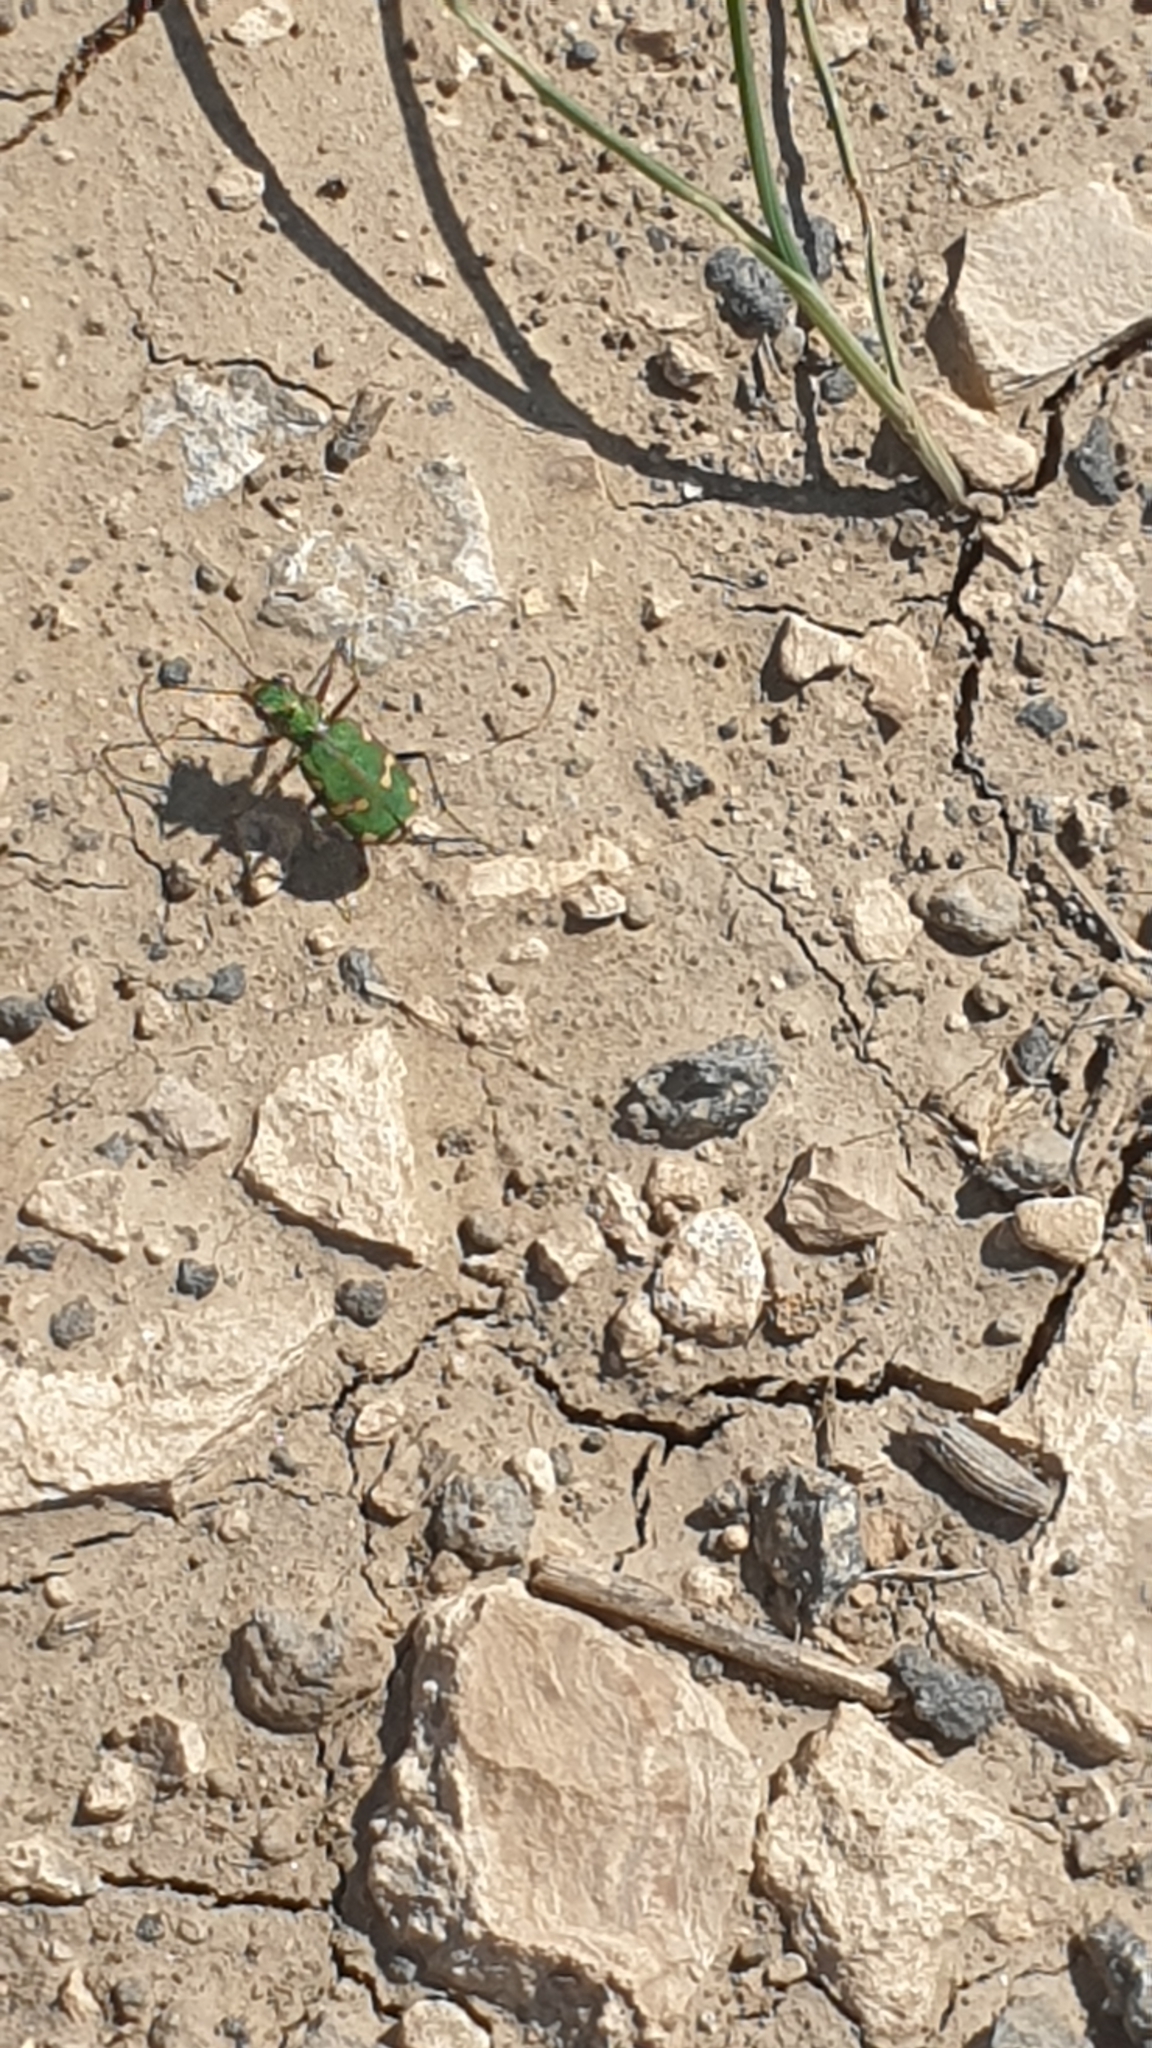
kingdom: Animalia
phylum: Arthropoda
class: Insecta
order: Coleoptera
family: Carabidae
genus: Cicindela
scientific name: Cicindela
